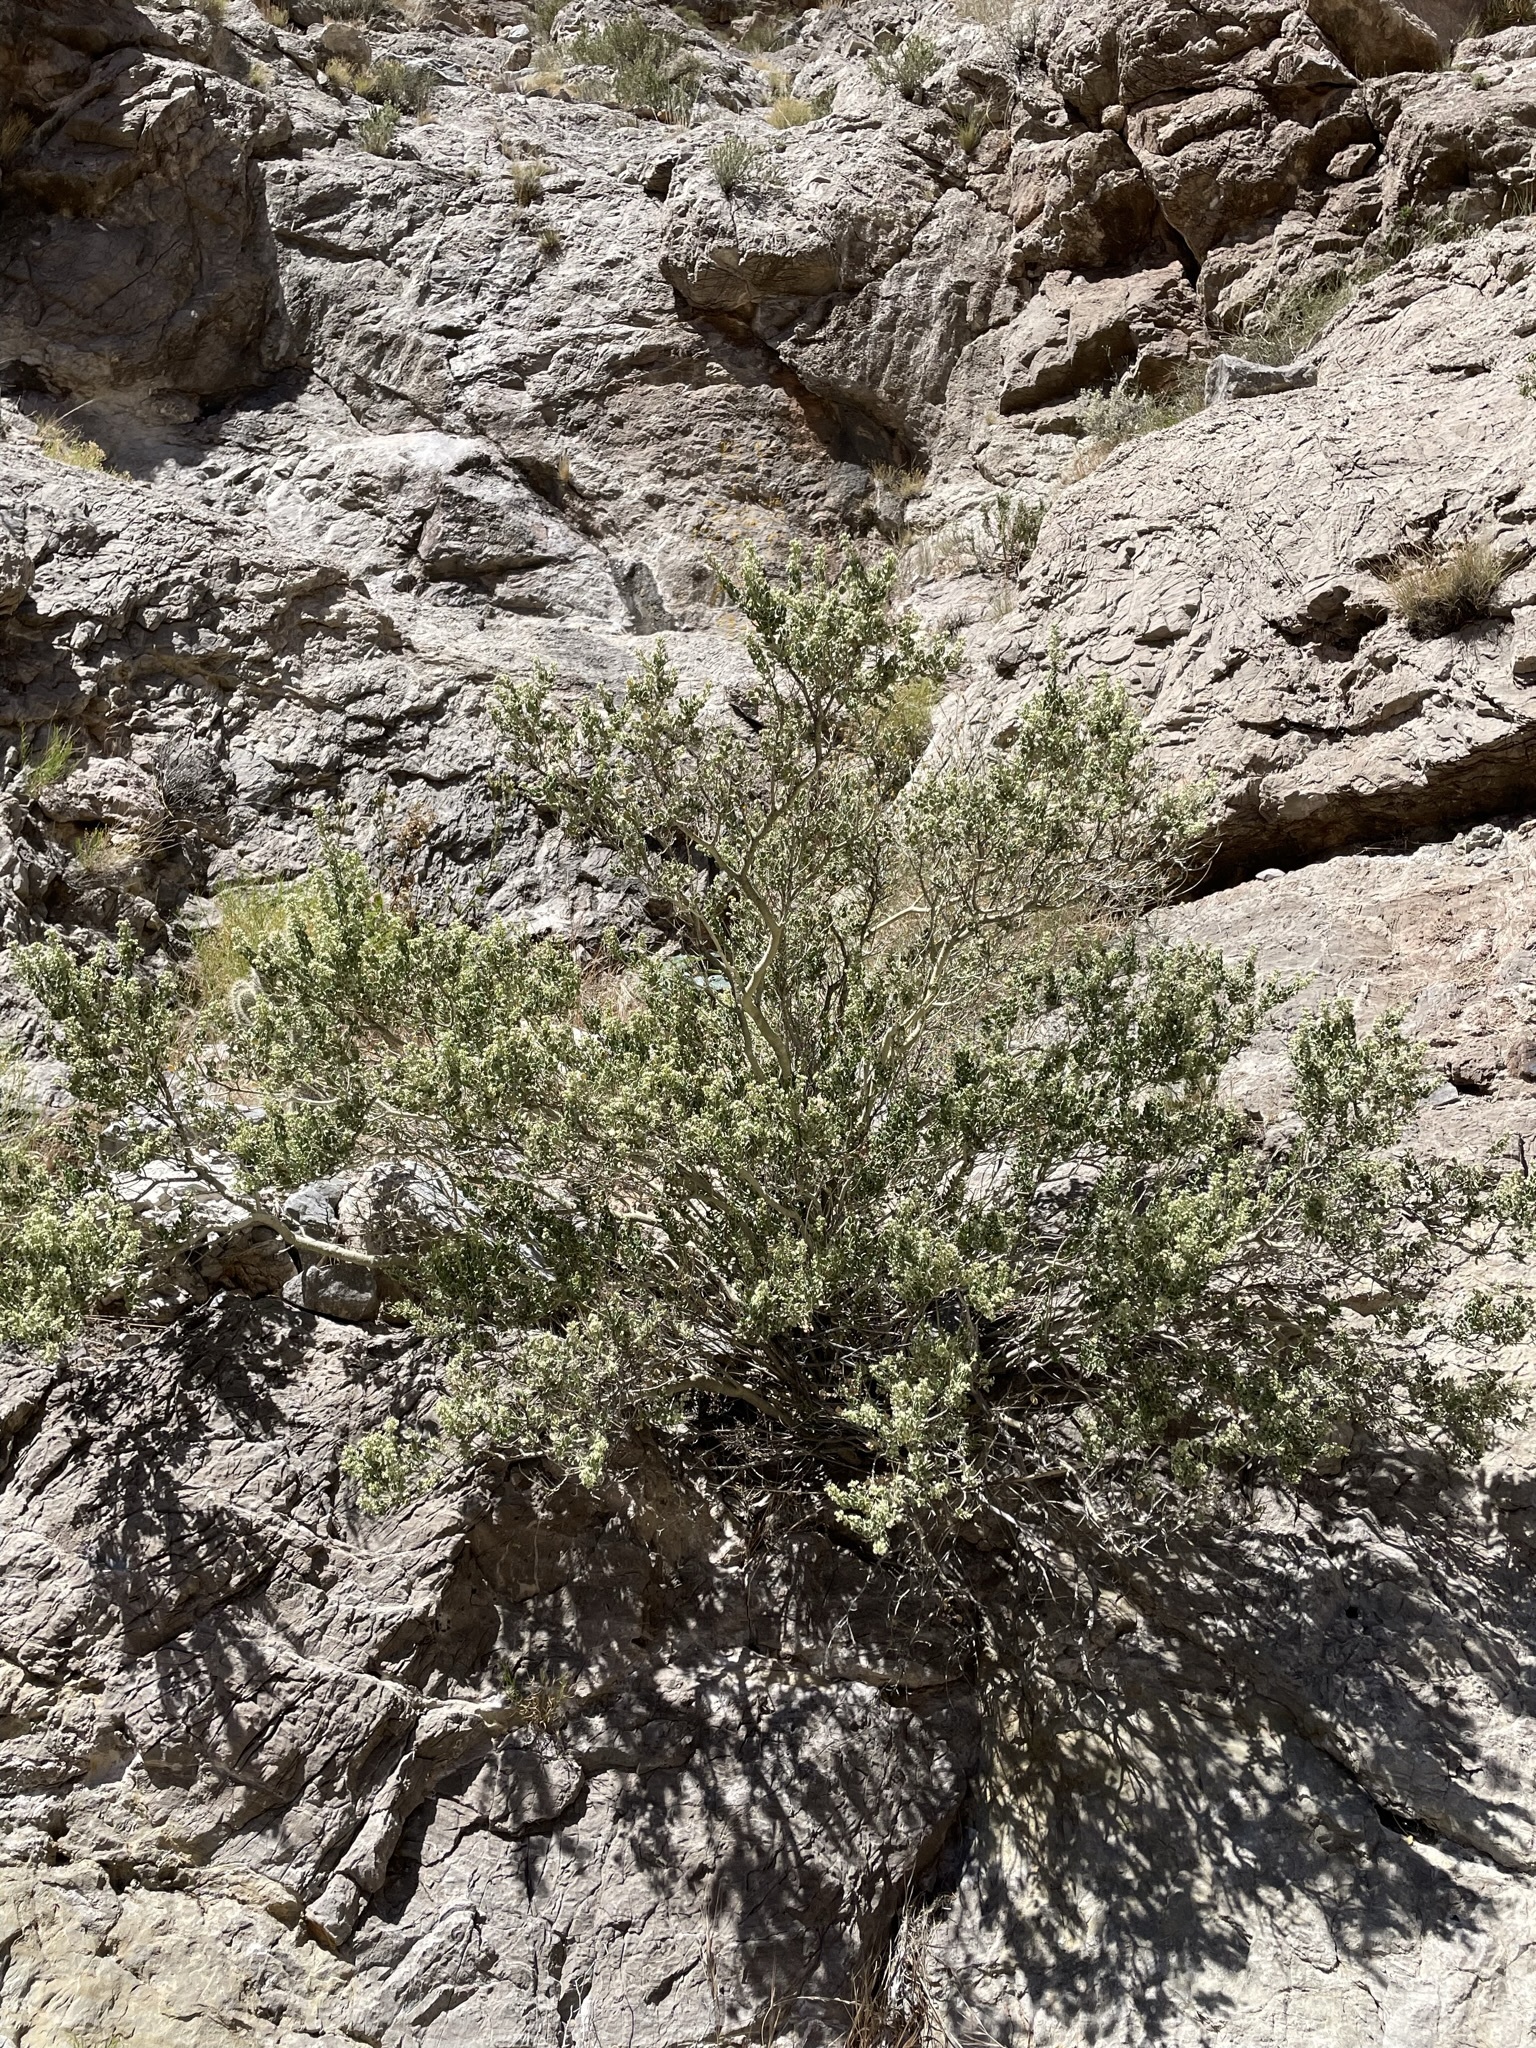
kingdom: Plantae
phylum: Tracheophyta
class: Magnoliopsida
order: Celastrales
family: Celastraceae
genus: Mortonia
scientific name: Mortonia utahensis
